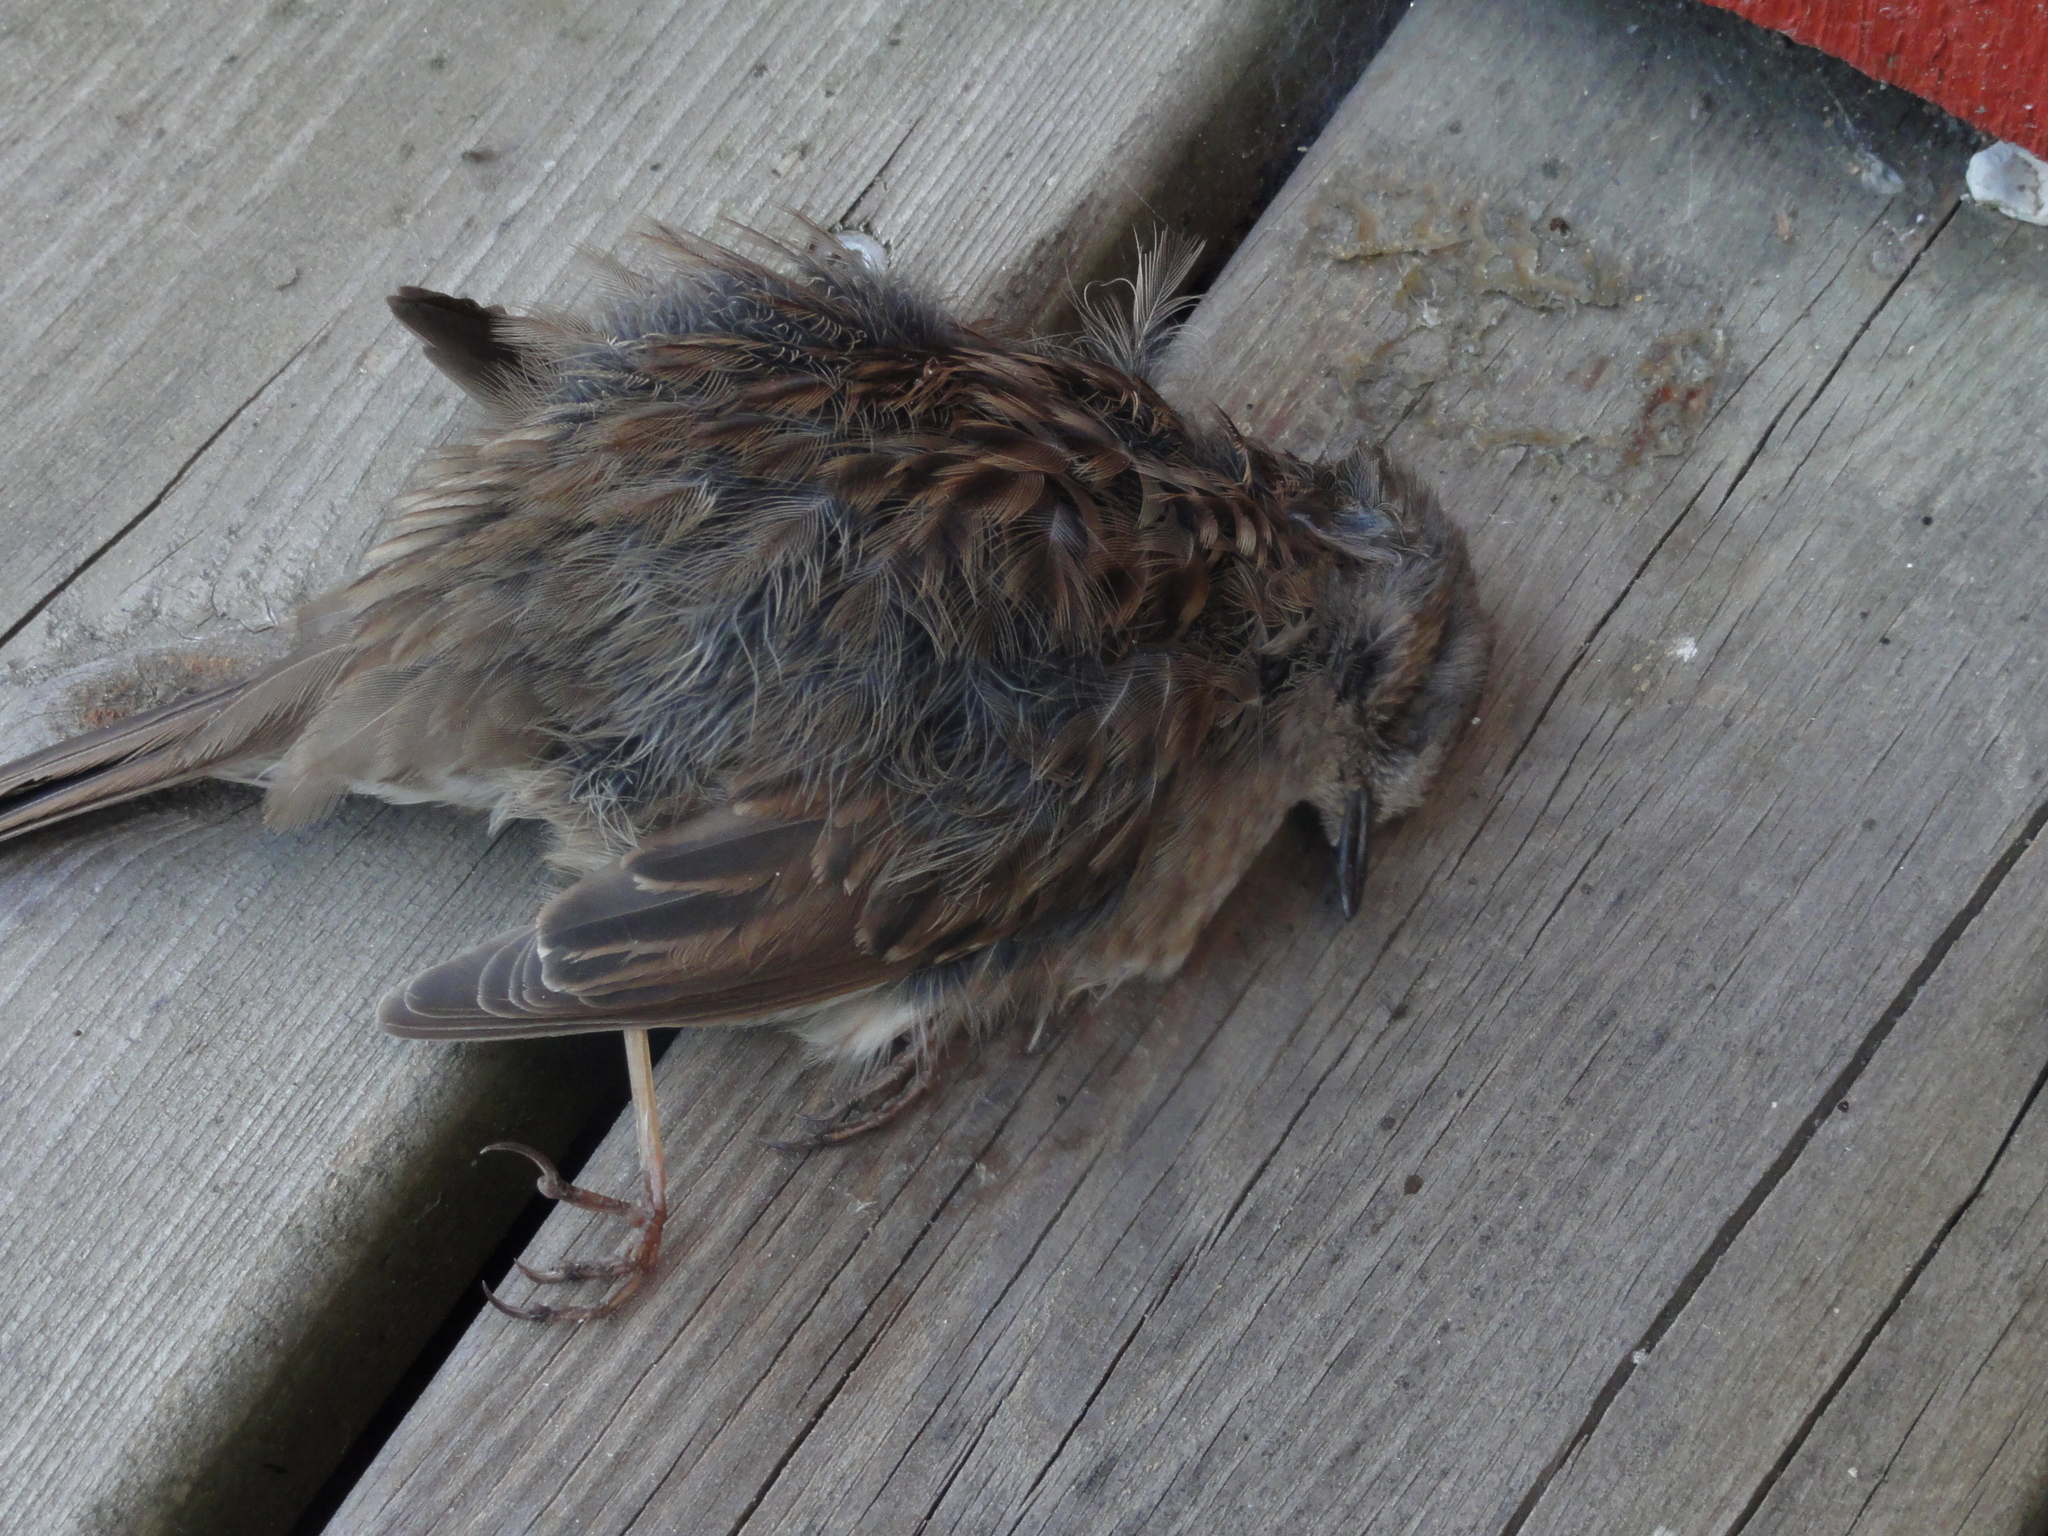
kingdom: Animalia
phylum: Chordata
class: Aves
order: Passeriformes
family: Prunellidae
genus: Prunella
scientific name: Prunella modularis
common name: Dunnock
